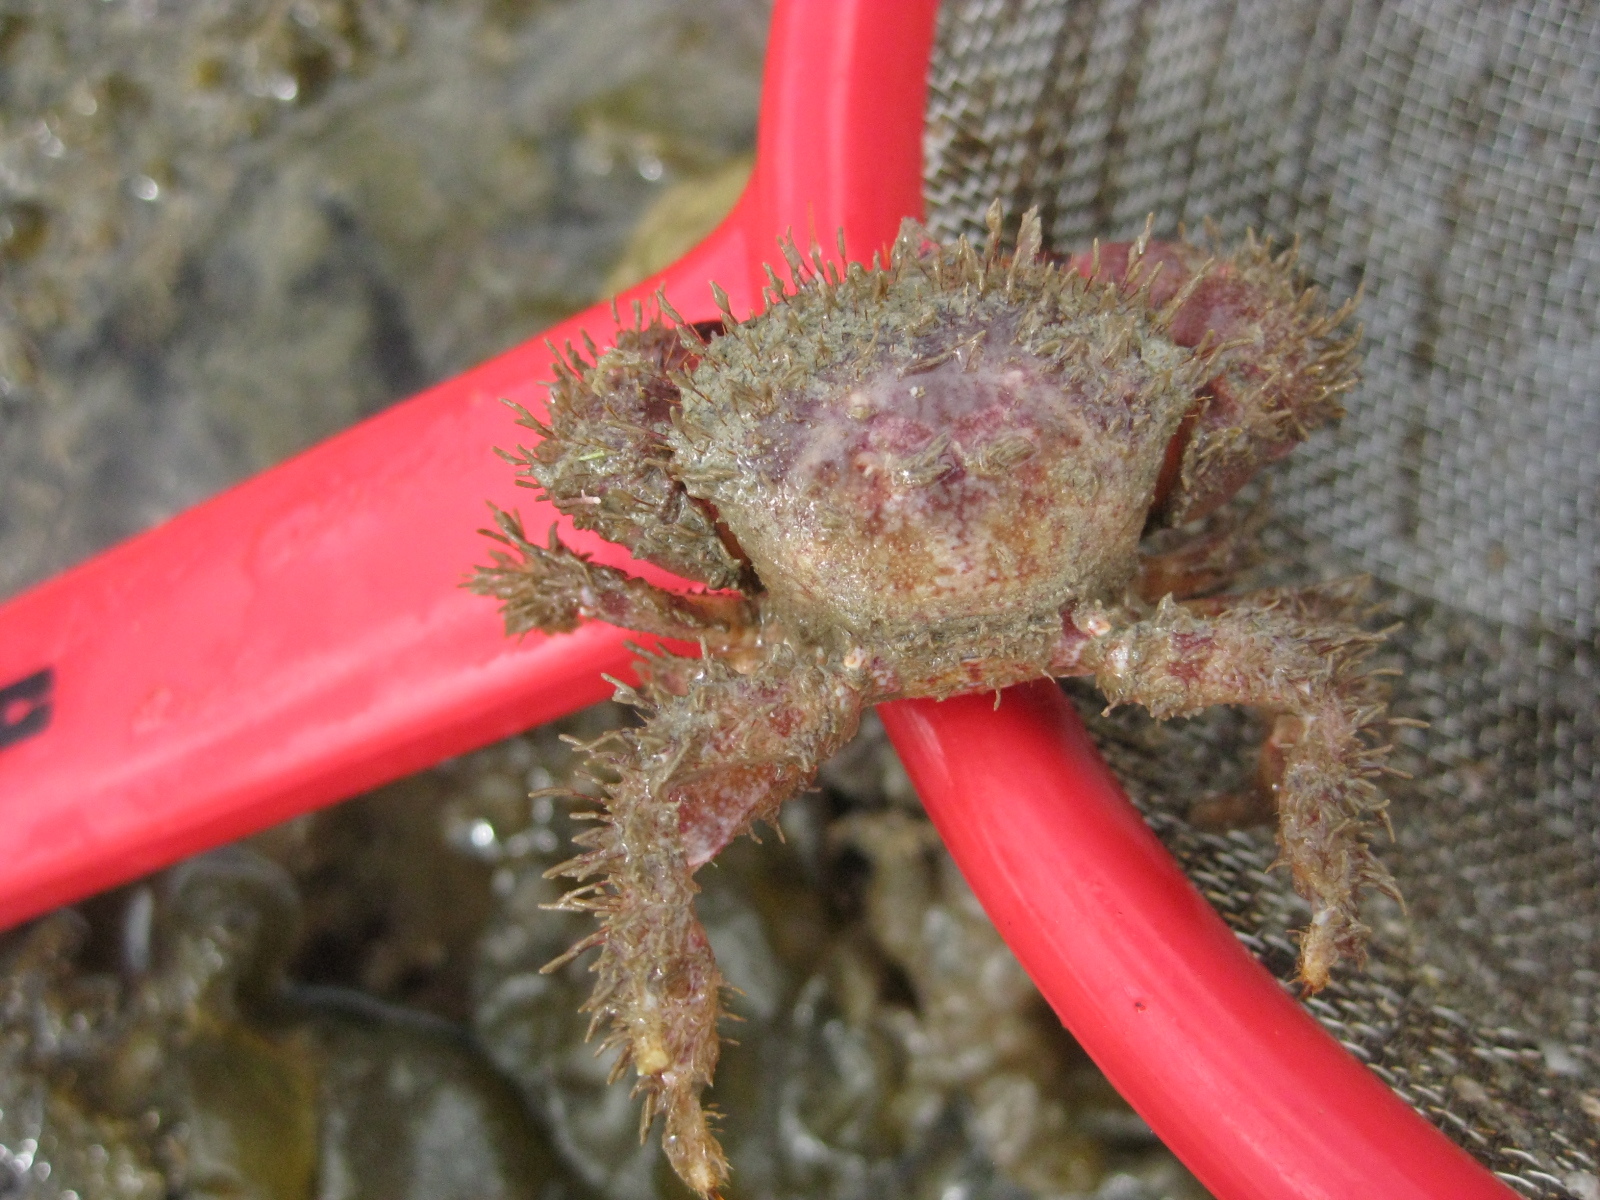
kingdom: Animalia
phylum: Arthropoda
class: Malacostraca
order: Decapoda
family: Pilumnidae
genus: Pilumnus
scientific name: Pilumnus novaezealandiae
